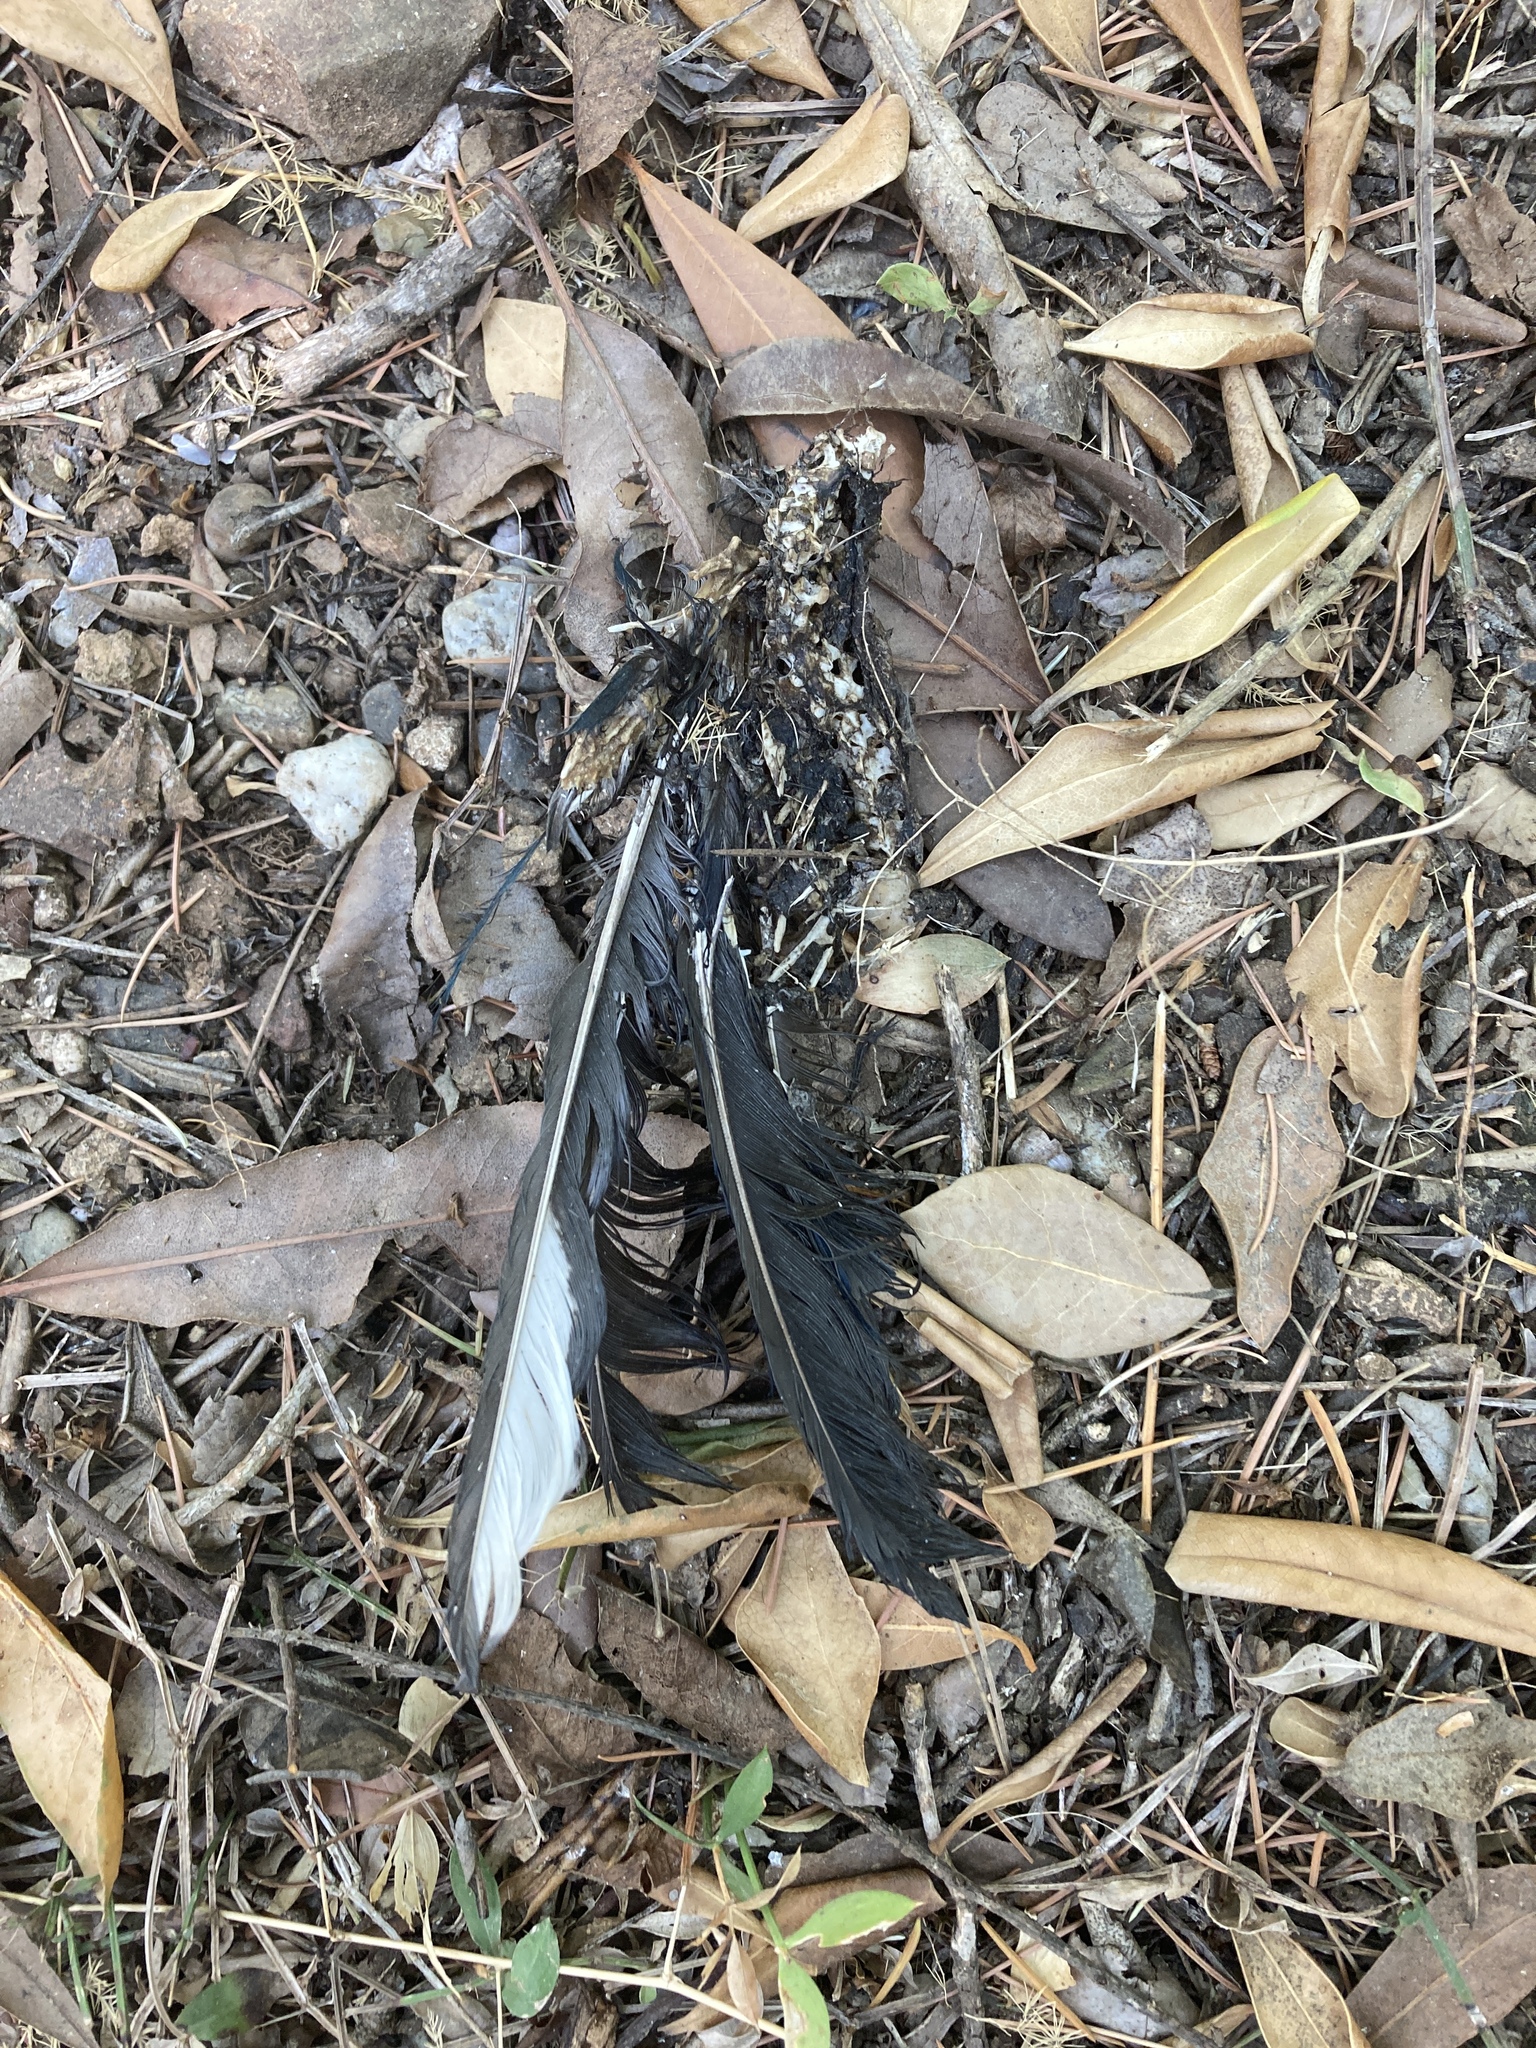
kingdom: Animalia
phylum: Chordata
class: Aves
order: Passeriformes
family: Corvidae
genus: Pica
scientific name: Pica pica
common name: Eurasian magpie
